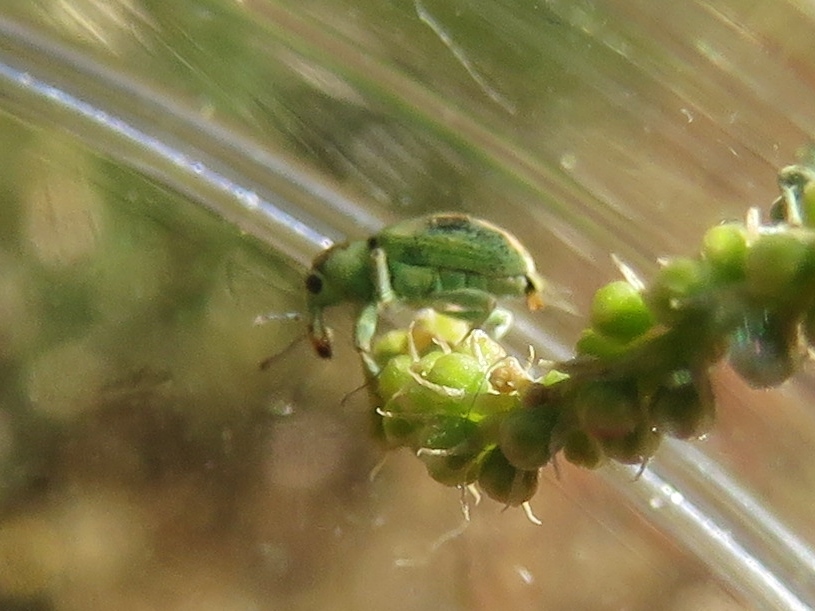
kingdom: Animalia
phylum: Arthropoda
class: Insecta
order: Coleoptera
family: Curculionidae
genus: Coniatus
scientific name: Coniatus splendidulus
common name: Splendid tamarisk weevil
